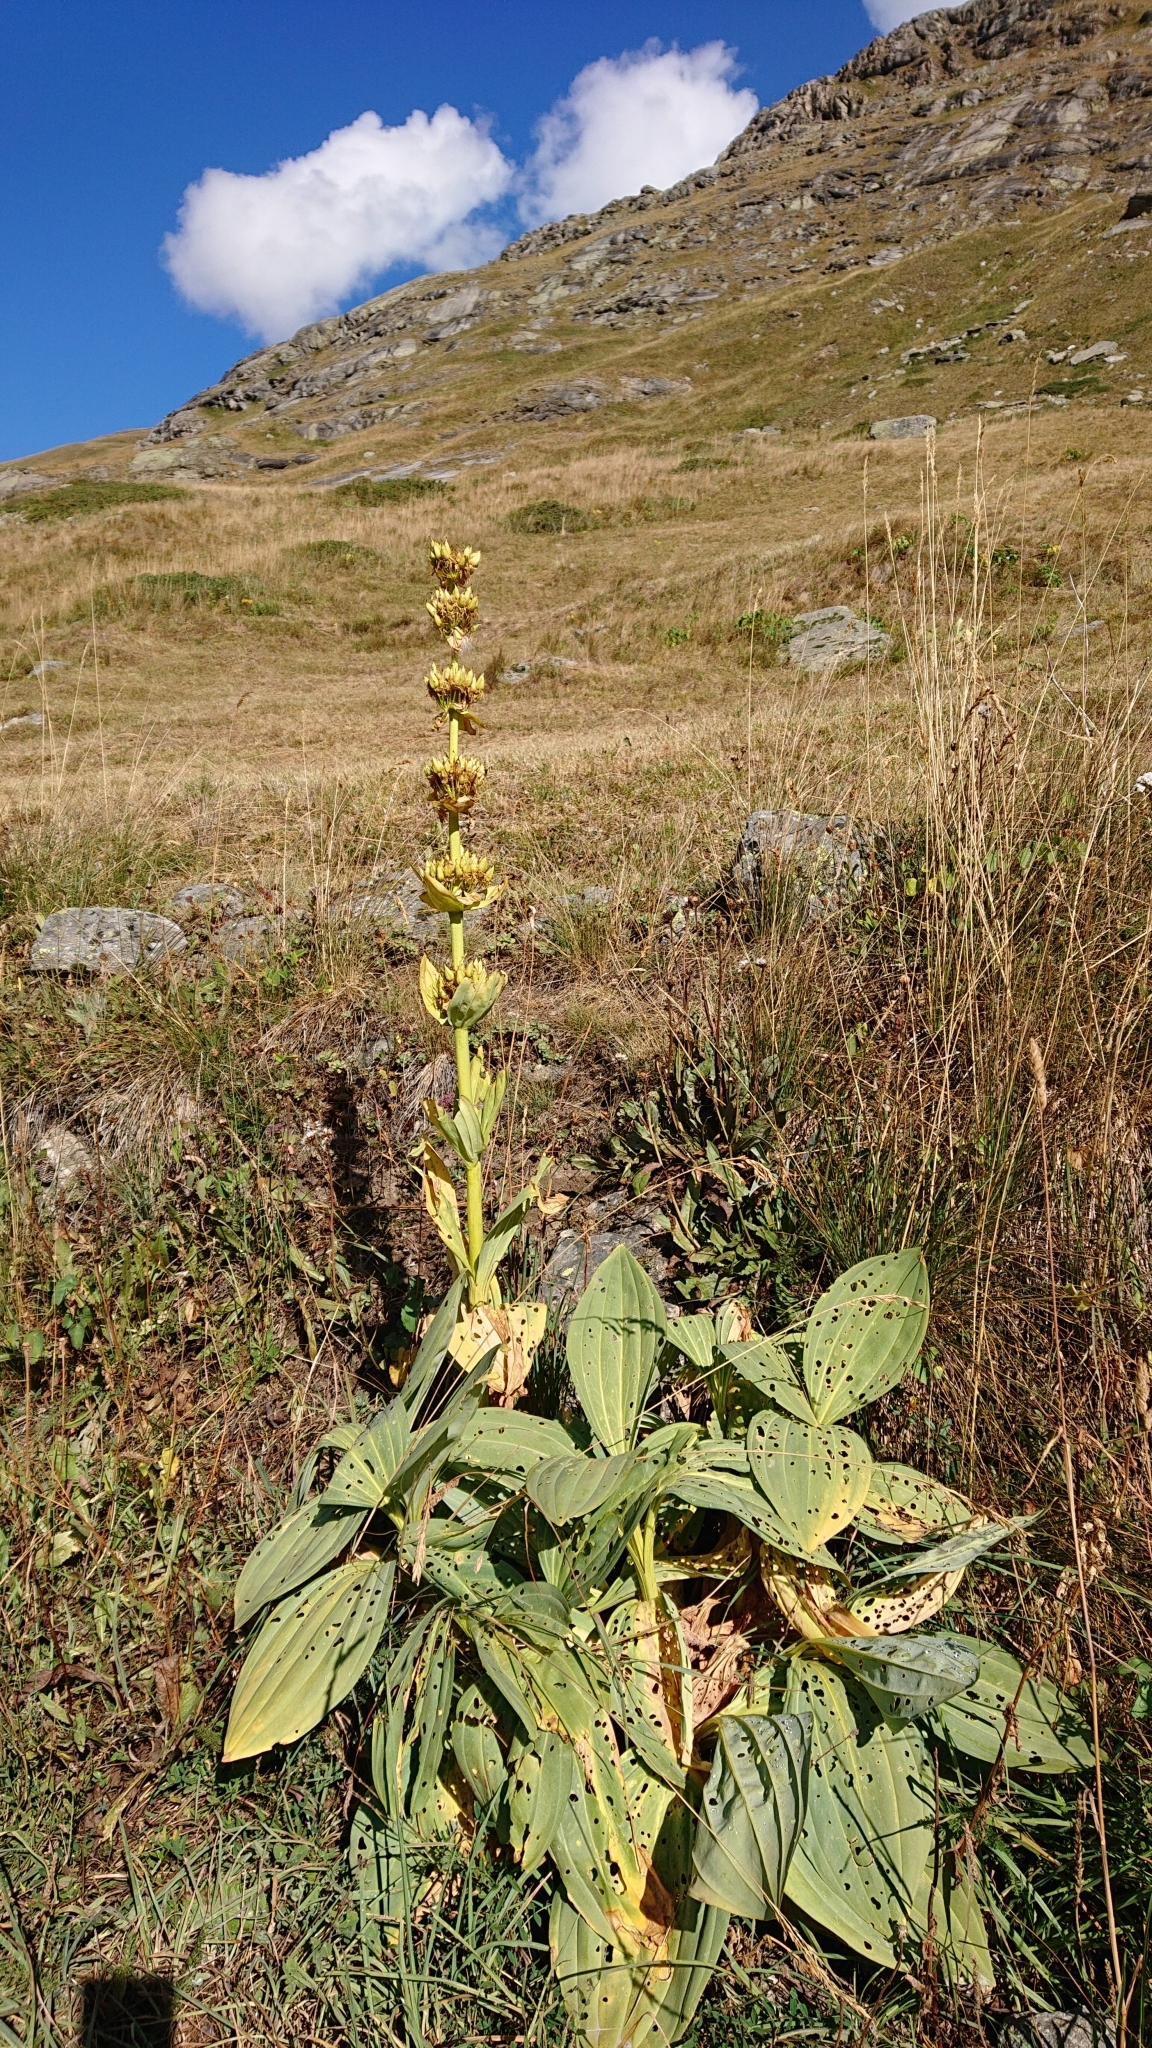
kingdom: Plantae
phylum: Tracheophyta
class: Magnoliopsida
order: Gentianales
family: Gentianaceae
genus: Gentiana
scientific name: Gentiana lutea
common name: Great yellow gentian
